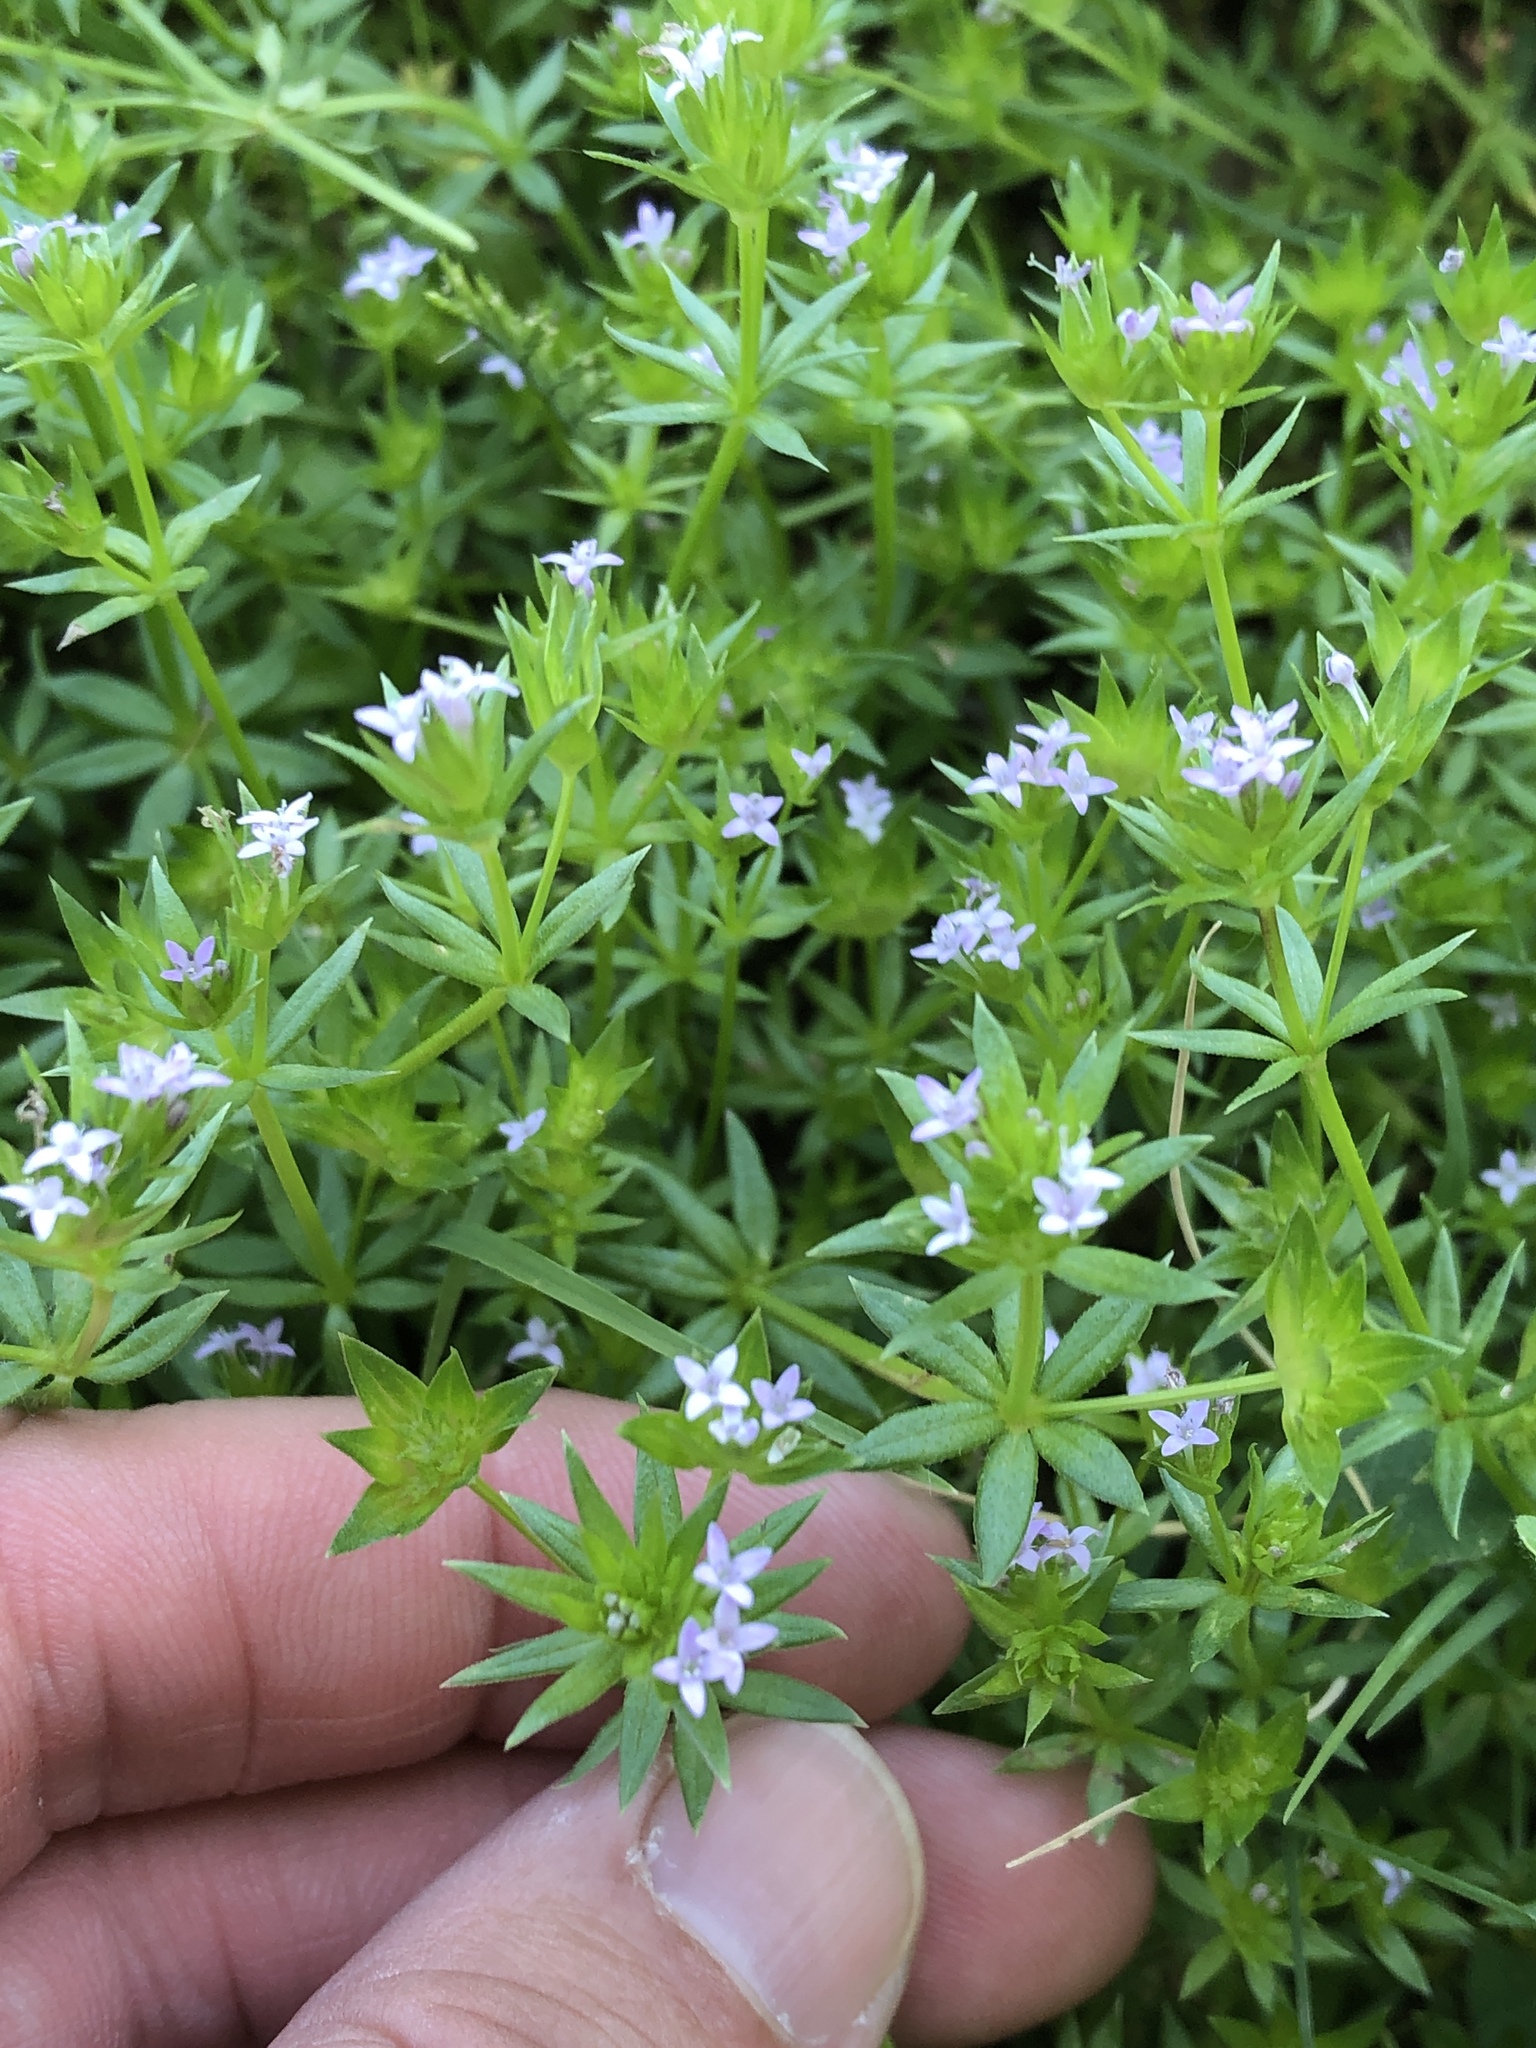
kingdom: Plantae
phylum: Tracheophyta
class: Magnoliopsida
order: Gentianales
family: Rubiaceae
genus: Sherardia
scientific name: Sherardia arvensis
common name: Field madder
